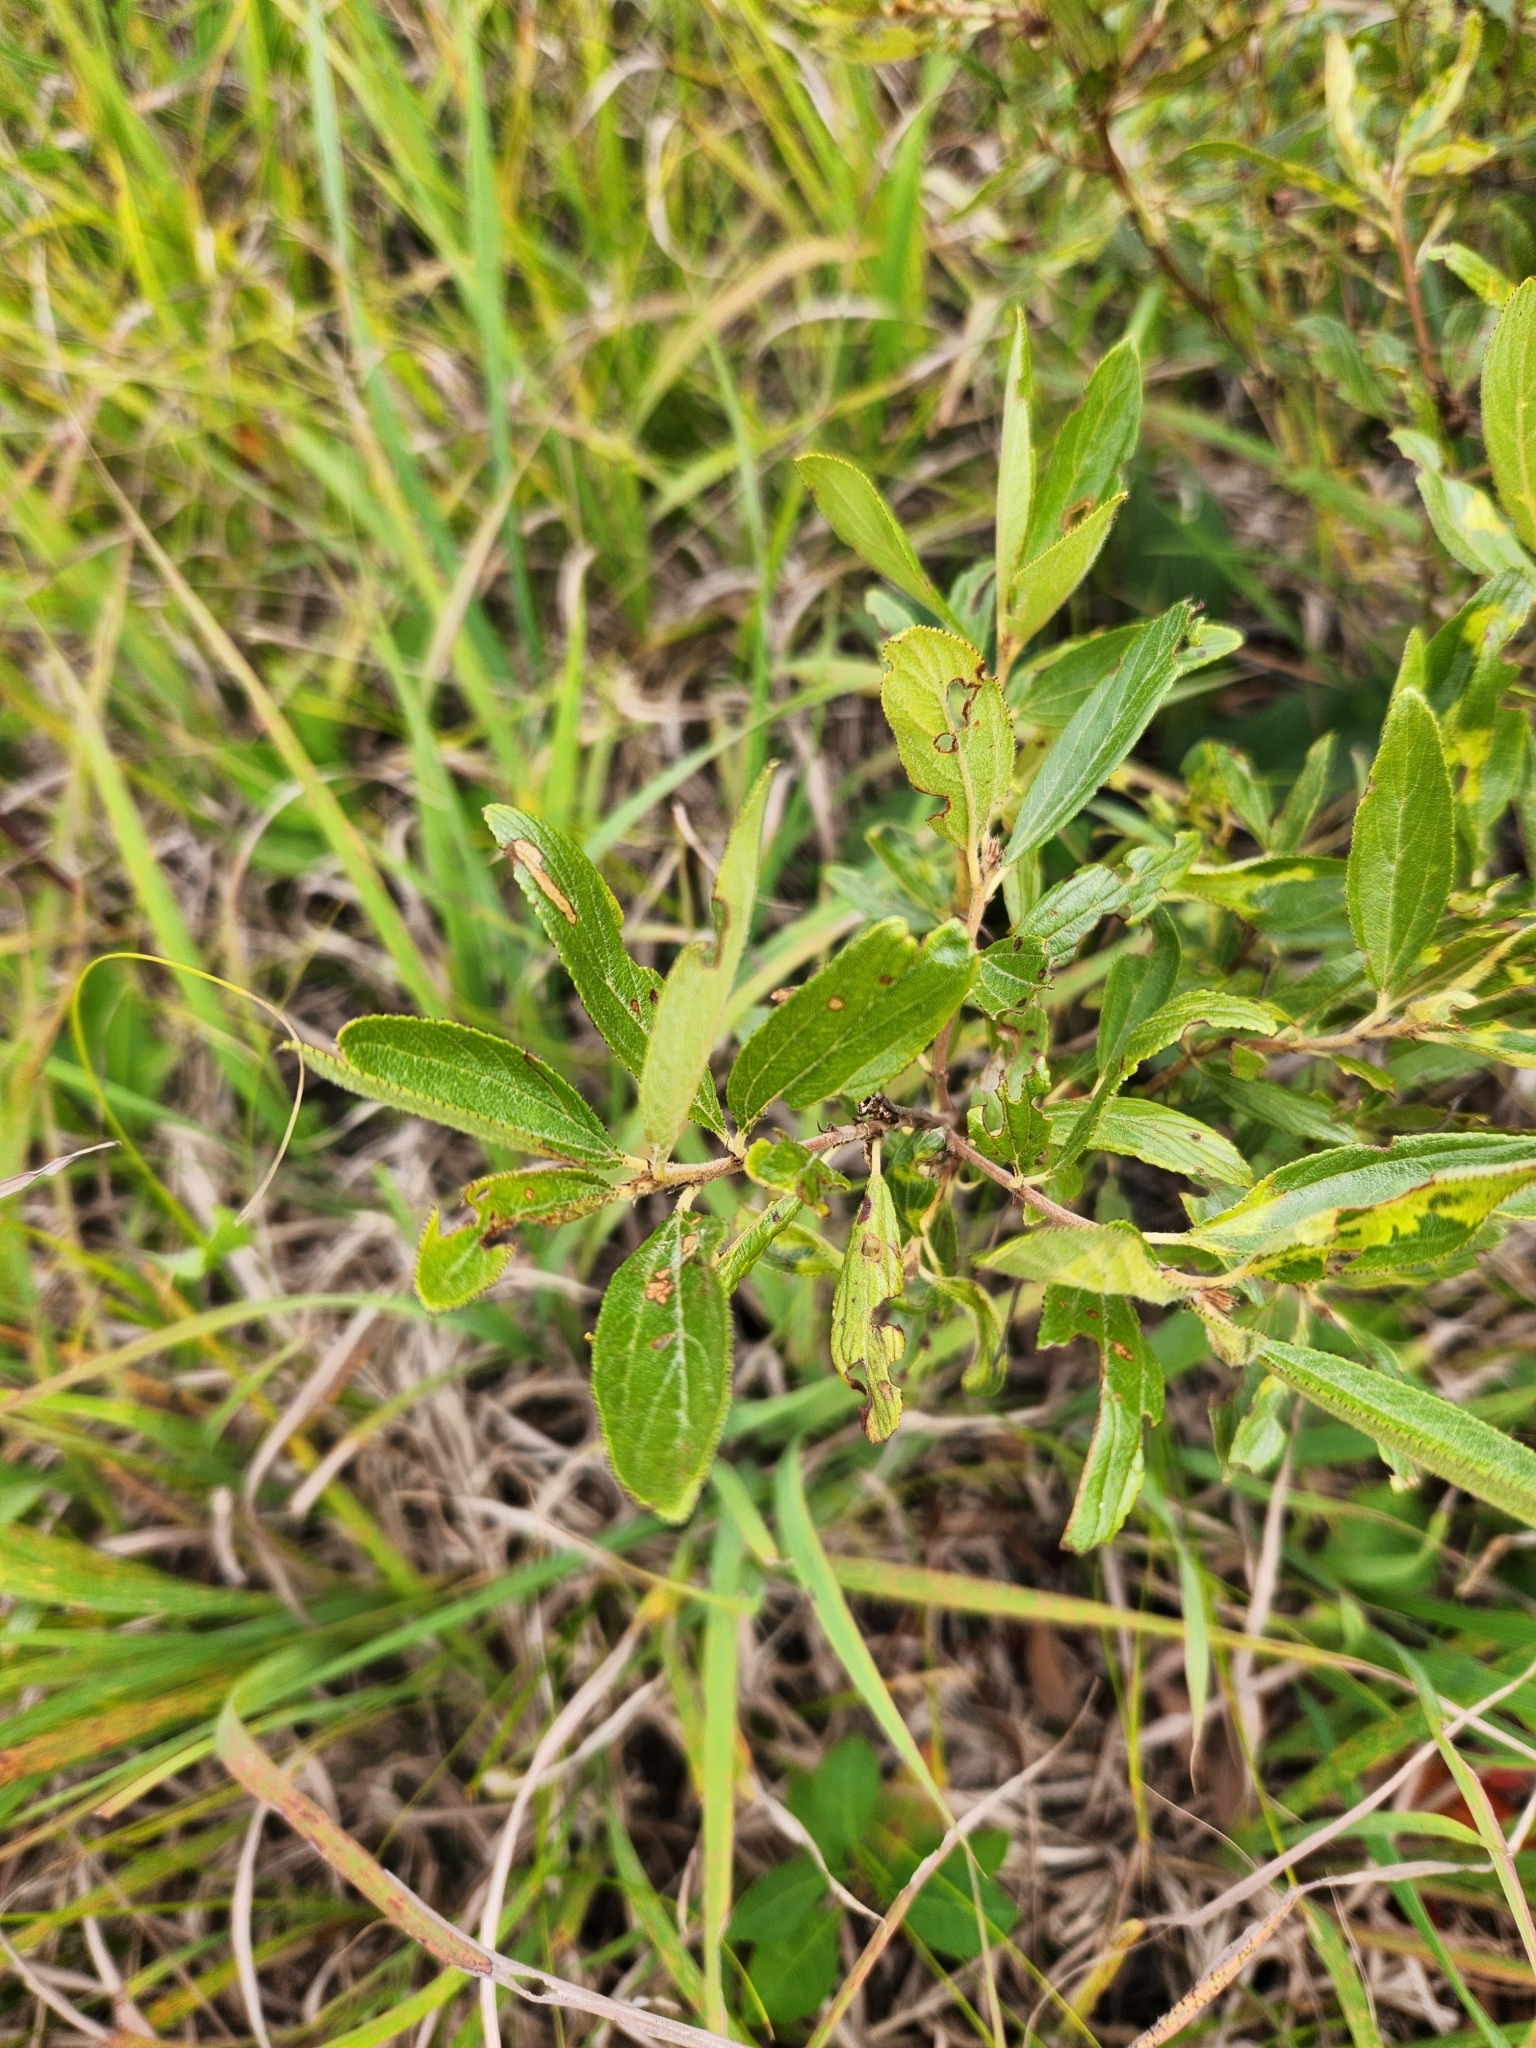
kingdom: Plantae
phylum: Tracheophyta
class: Magnoliopsida
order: Rosales
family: Rhamnaceae
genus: Ceanothus
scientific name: Ceanothus herbaceus
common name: Inland ceanothus
